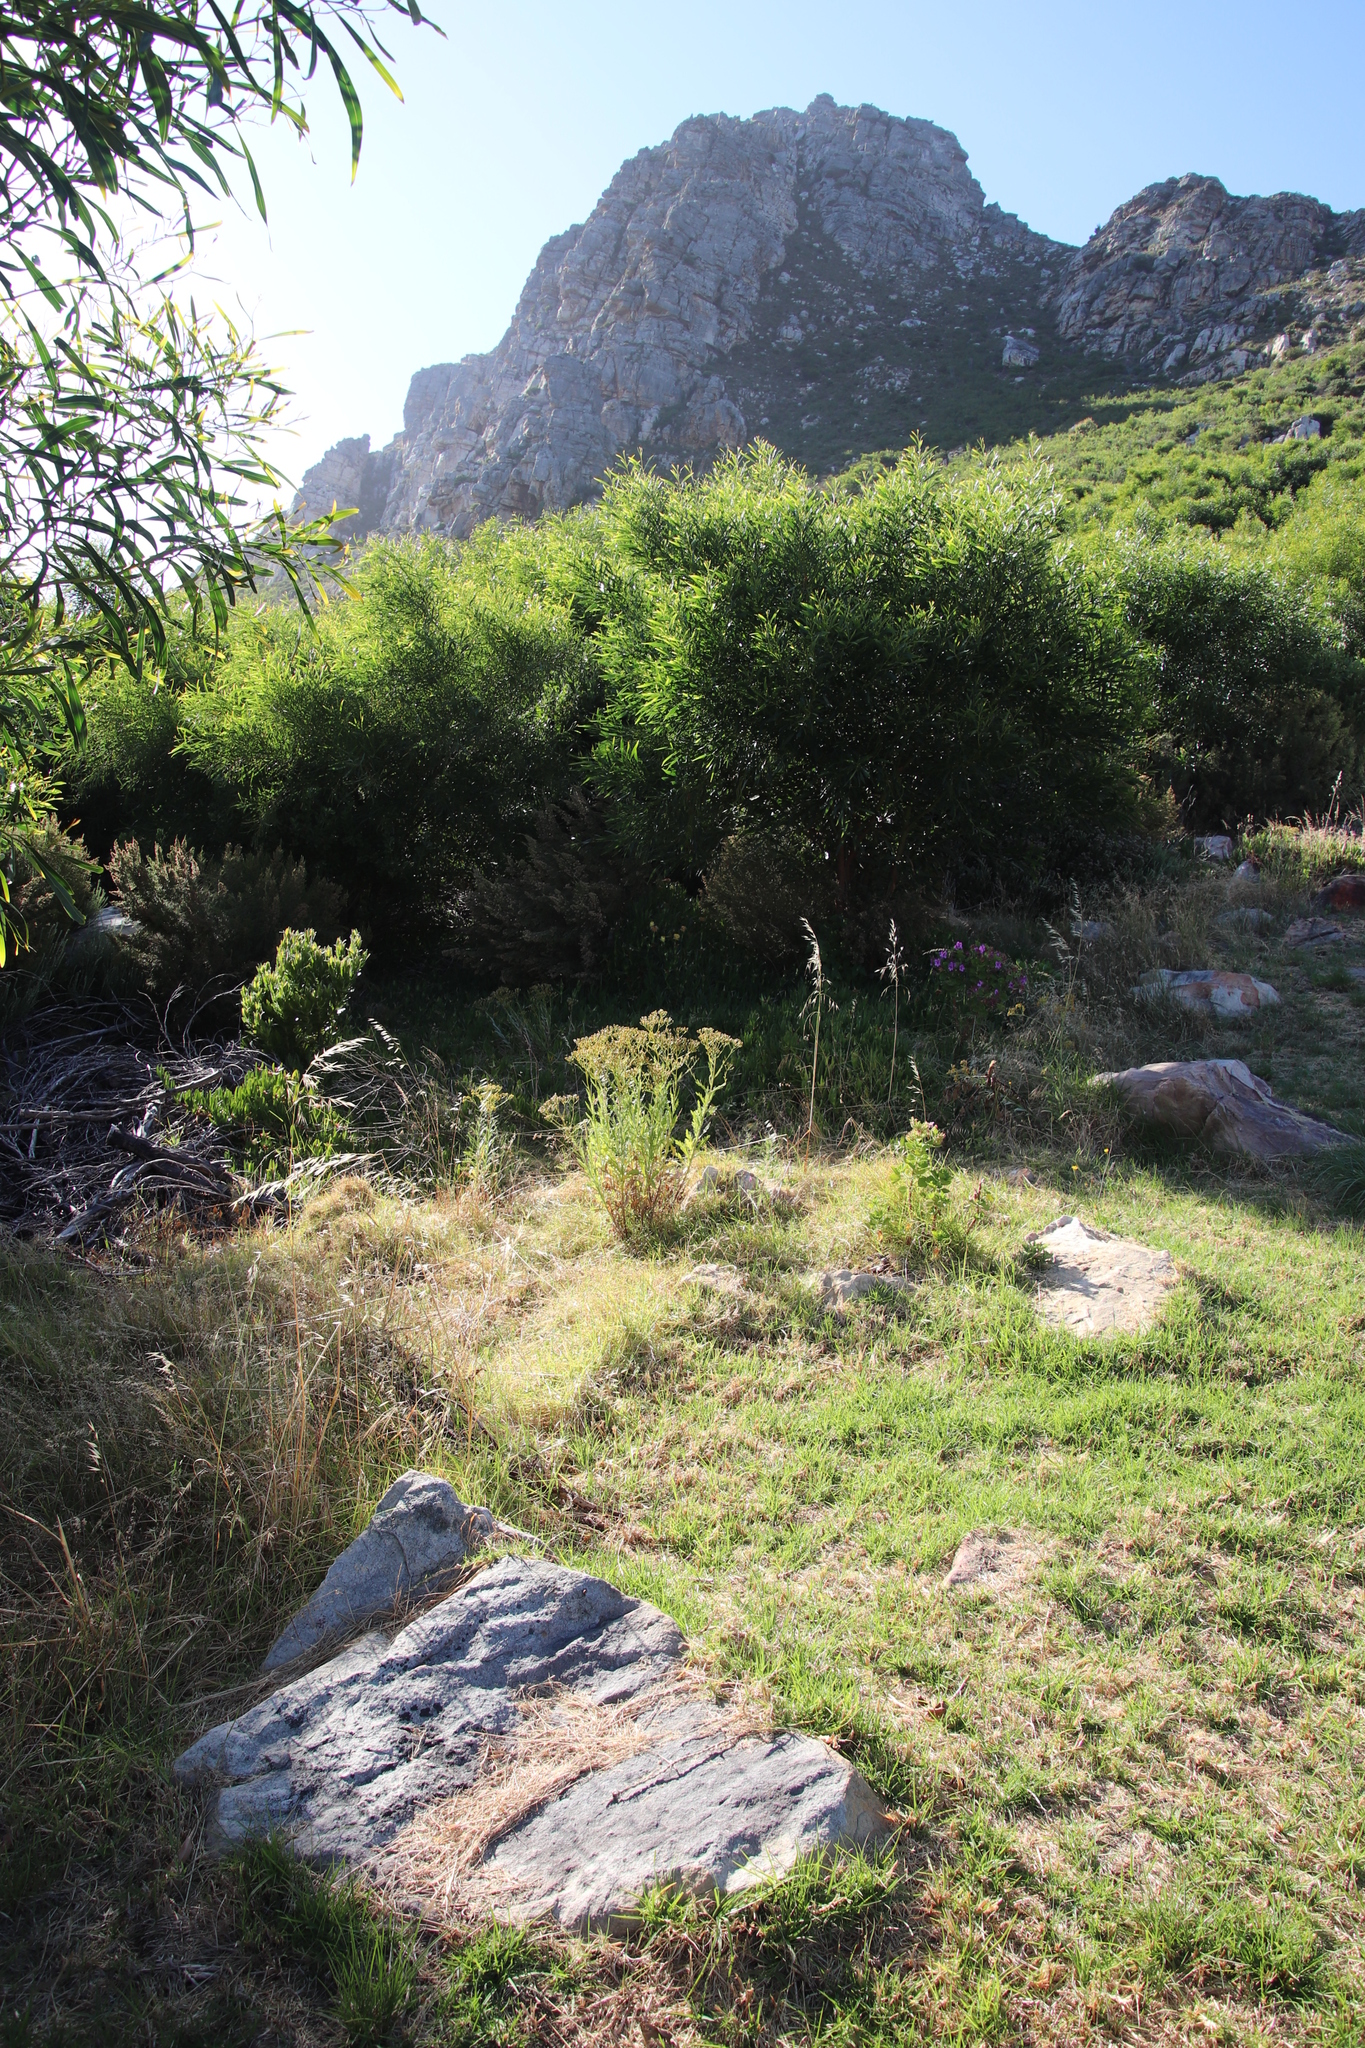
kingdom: Plantae
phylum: Tracheophyta
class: Magnoliopsida
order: Asterales
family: Asteraceae
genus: Senecio
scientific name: Senecio pterophorus
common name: Shoddy ragwort
